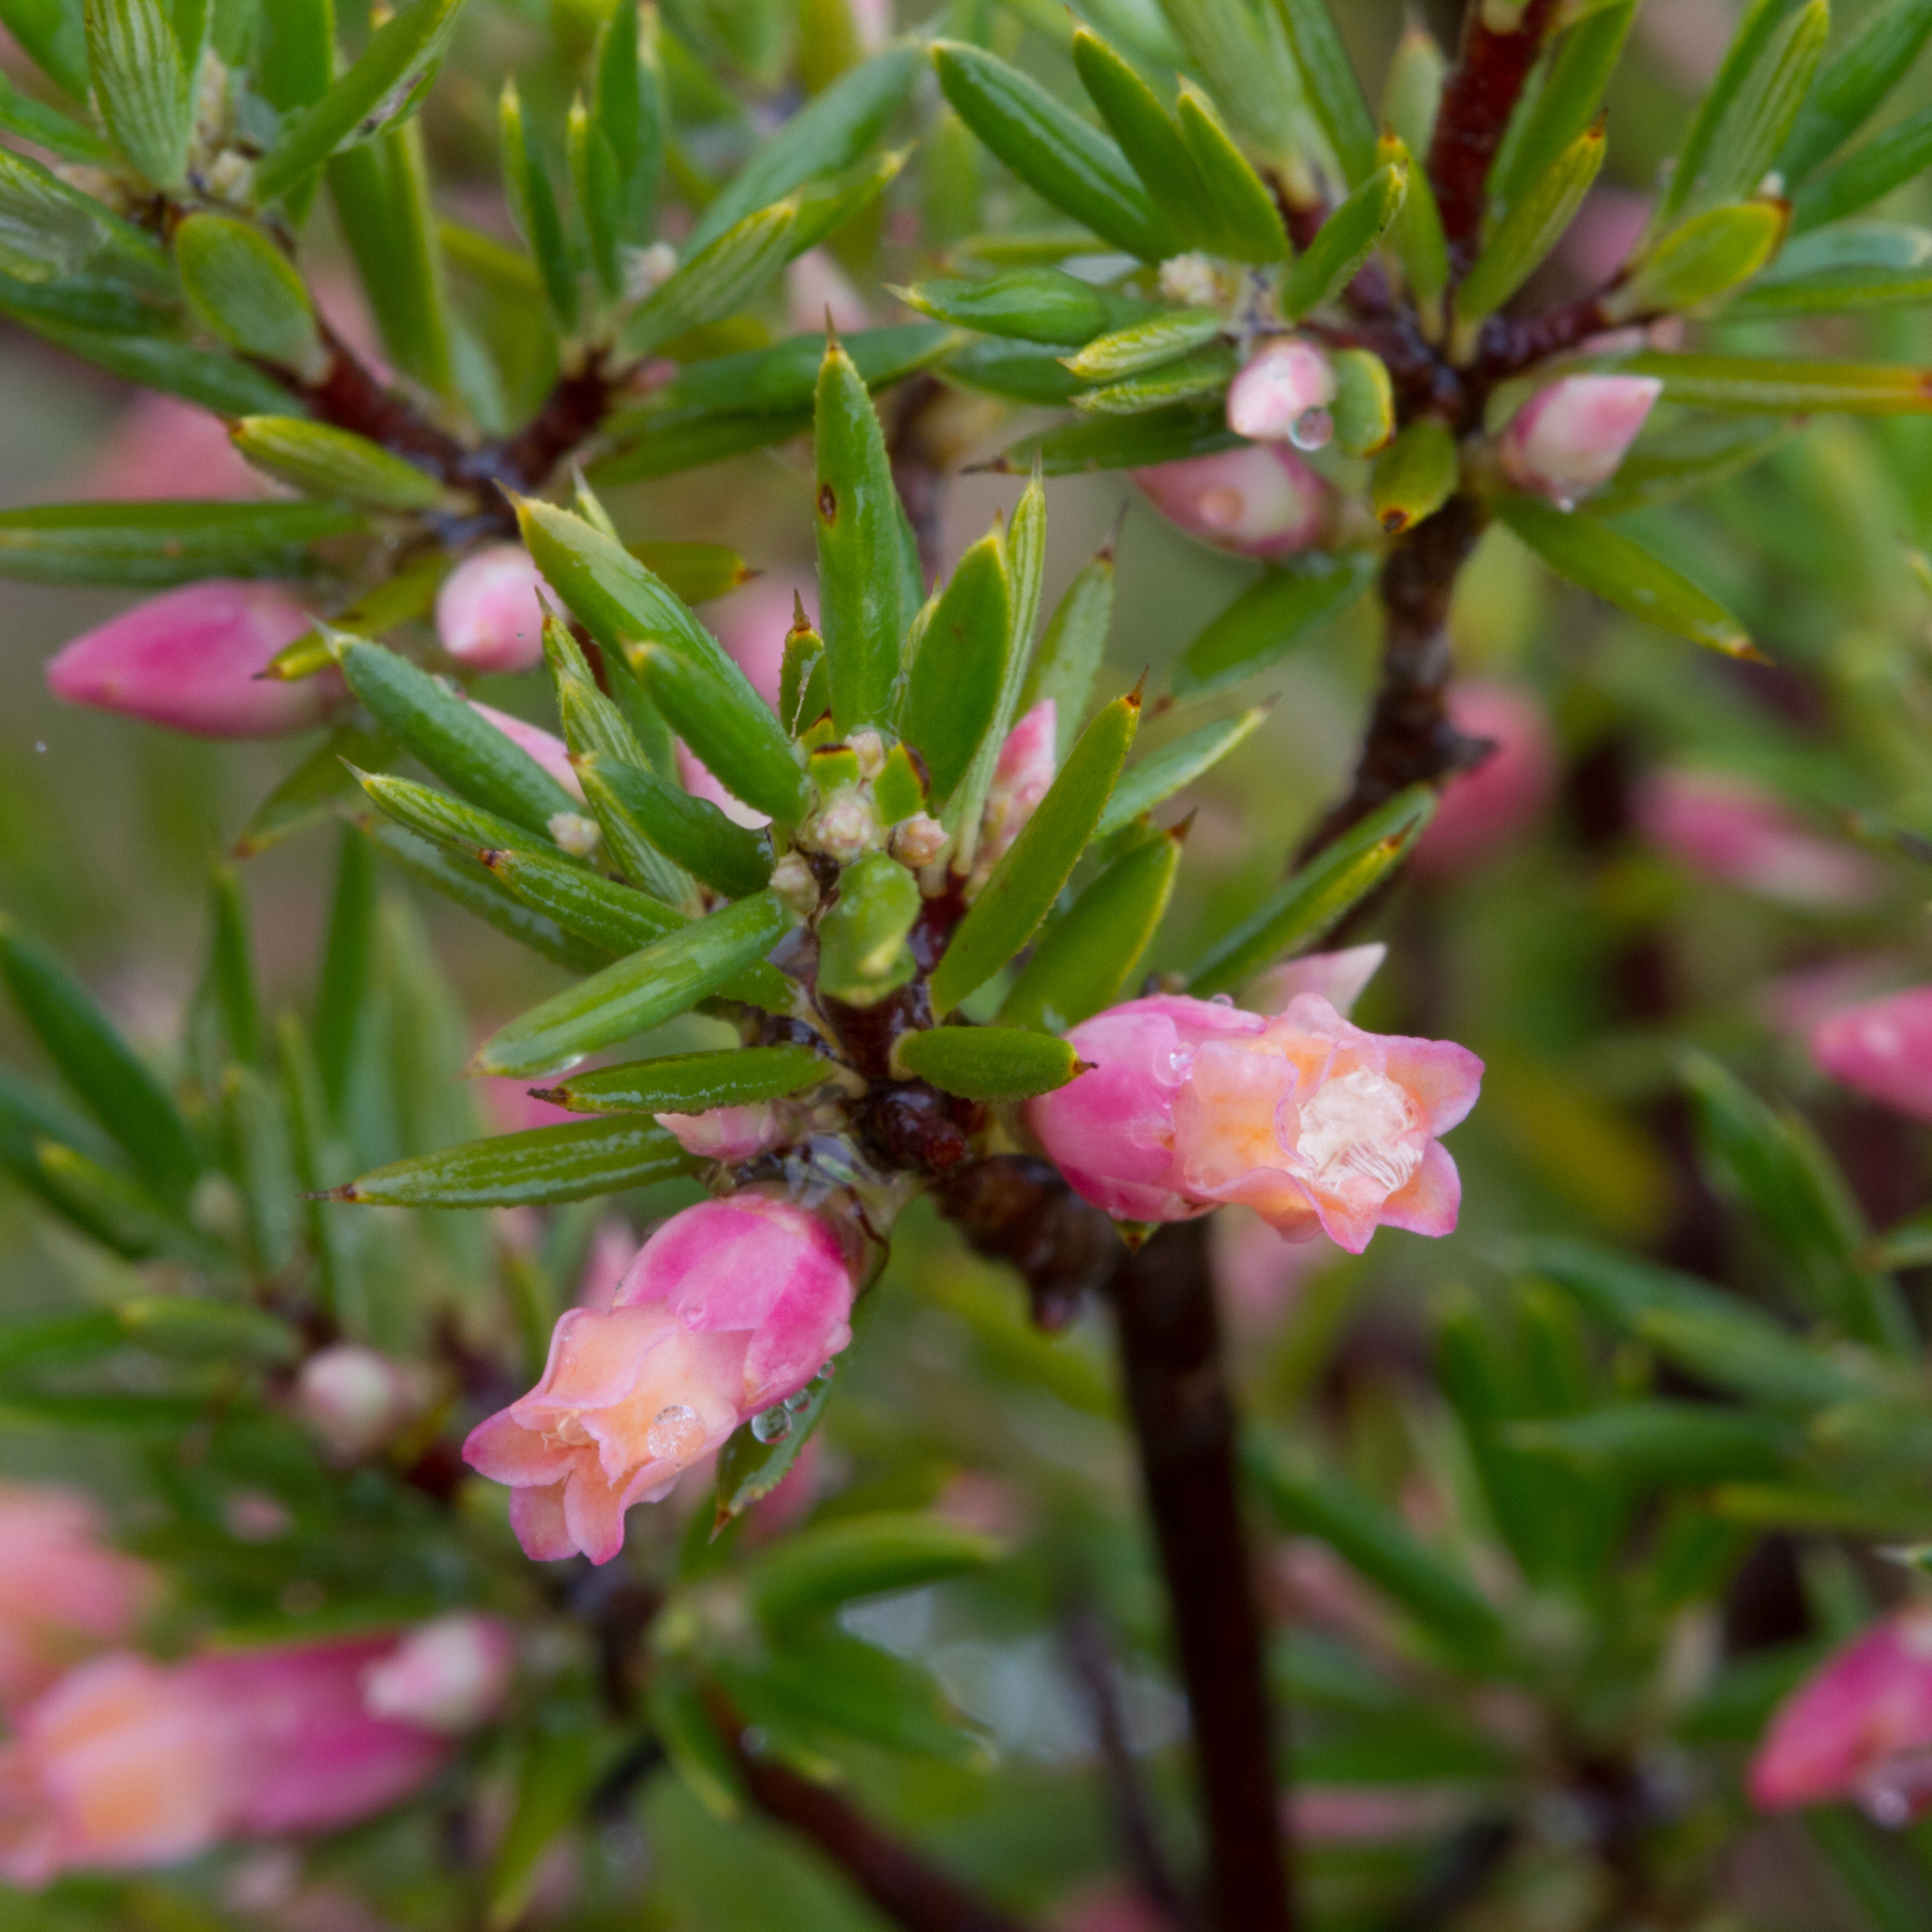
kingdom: Plantae
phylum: Tracheophyta
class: Magnoliopsida
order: Ericales
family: Ericaceae
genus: Brachyloma
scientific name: Brachyloma ericoides
